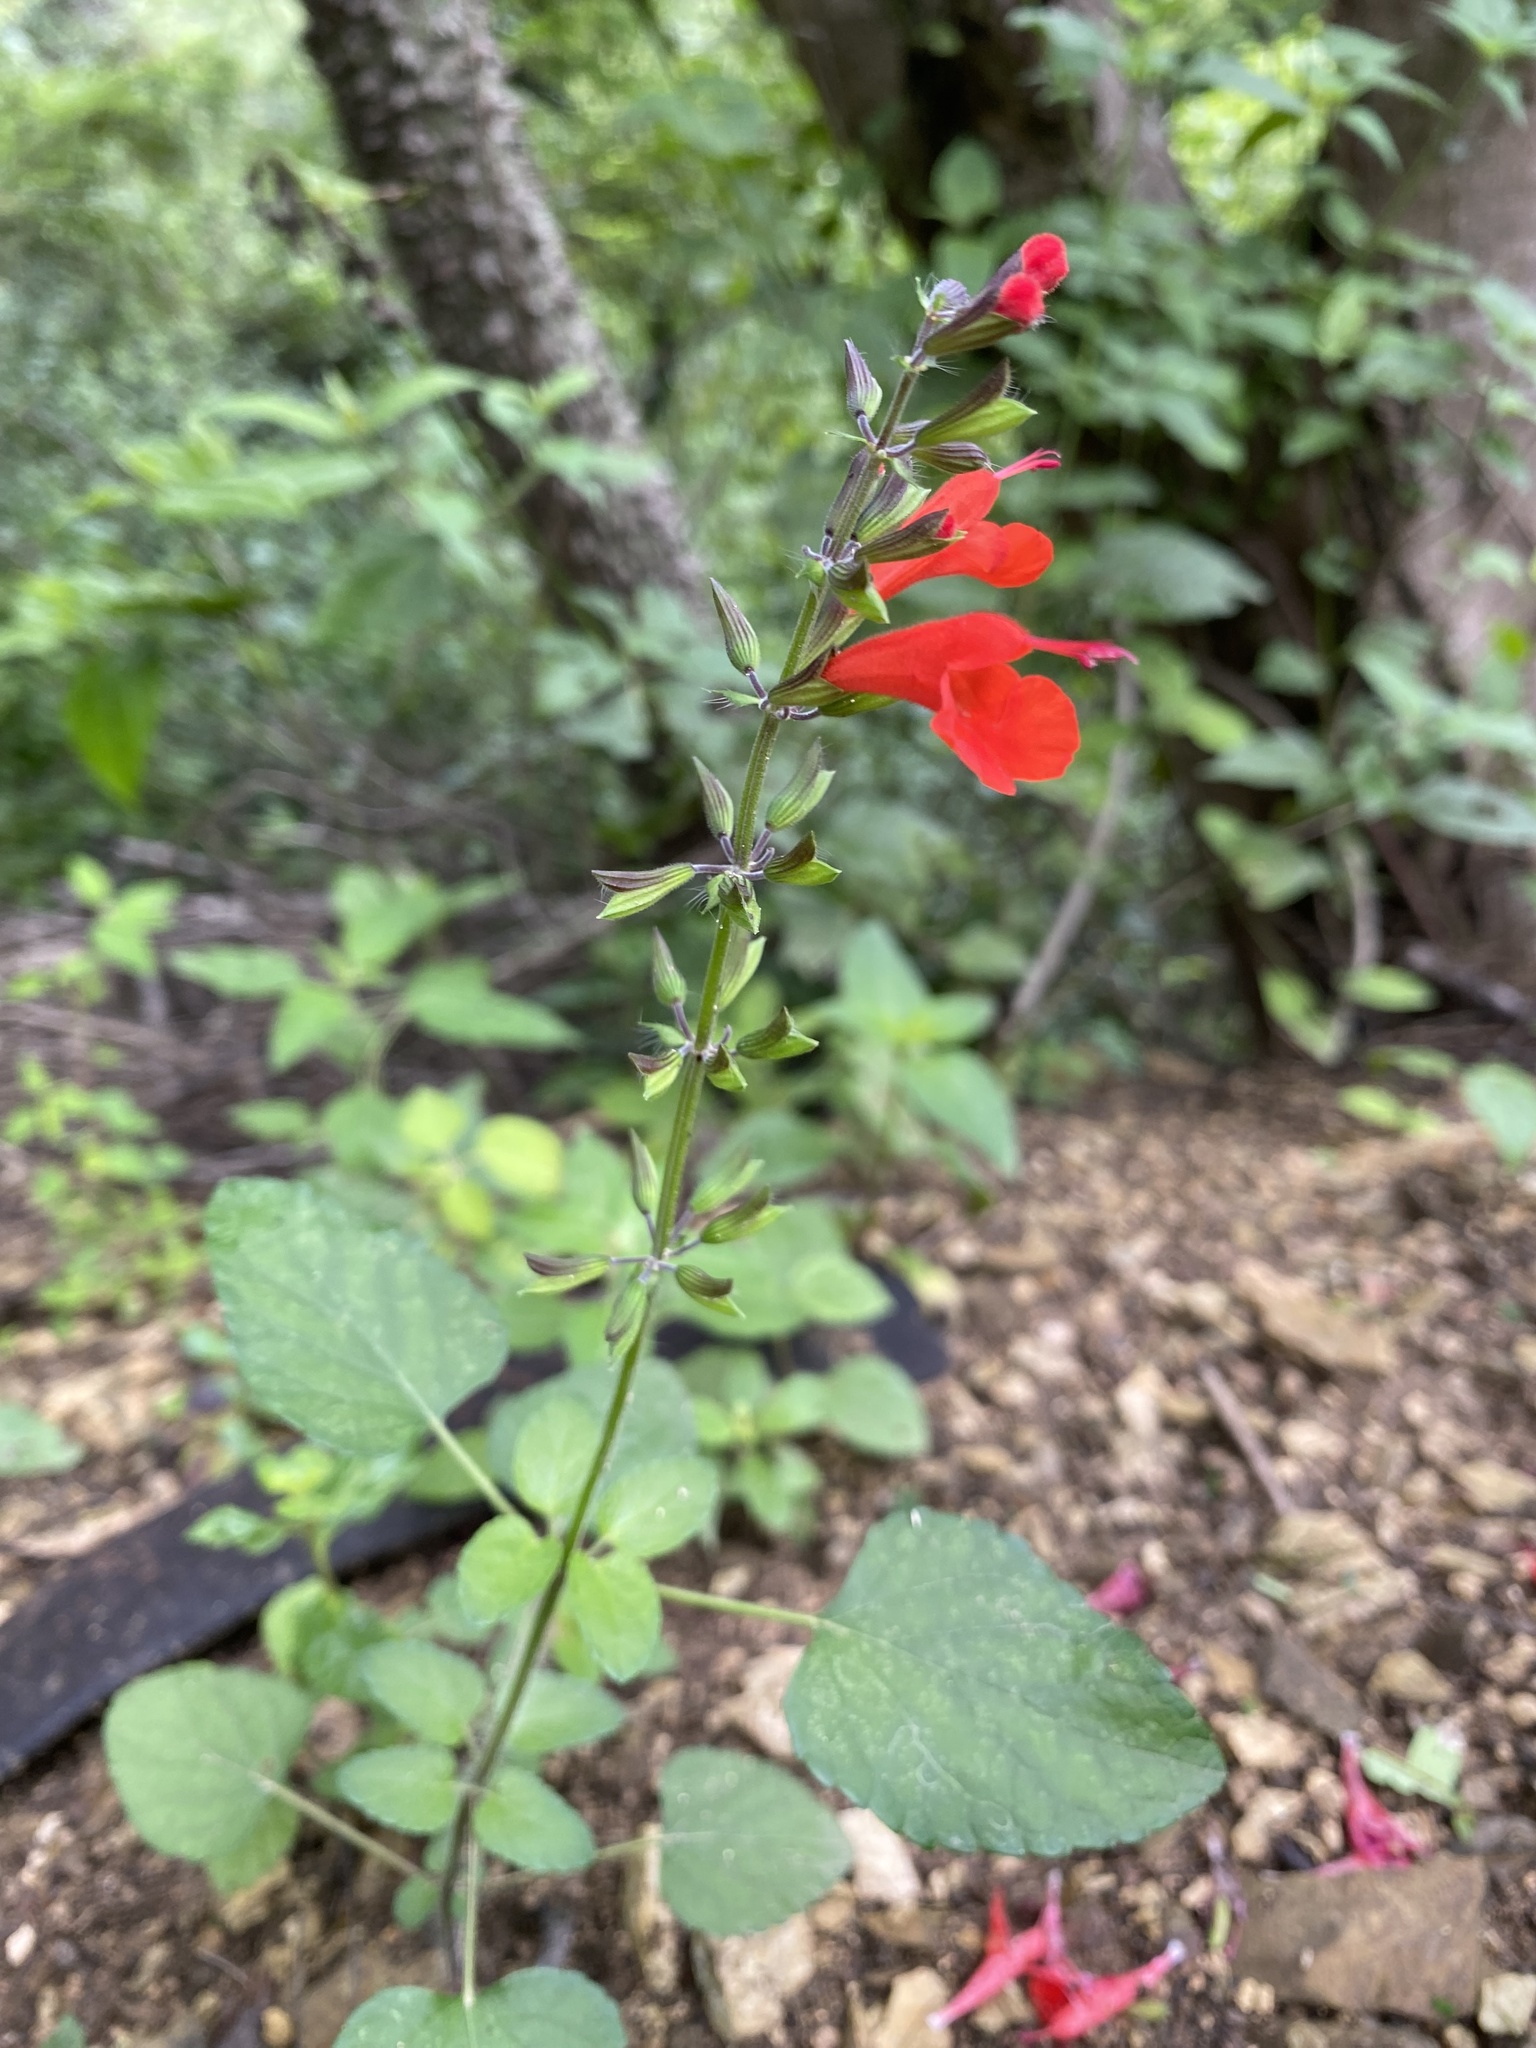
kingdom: Plantae
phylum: Tracheophyta
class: Magnoliopsida
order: Lamiales
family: Lamiaceae
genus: Salvia
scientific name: Salvia coccinea
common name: Blood sage
